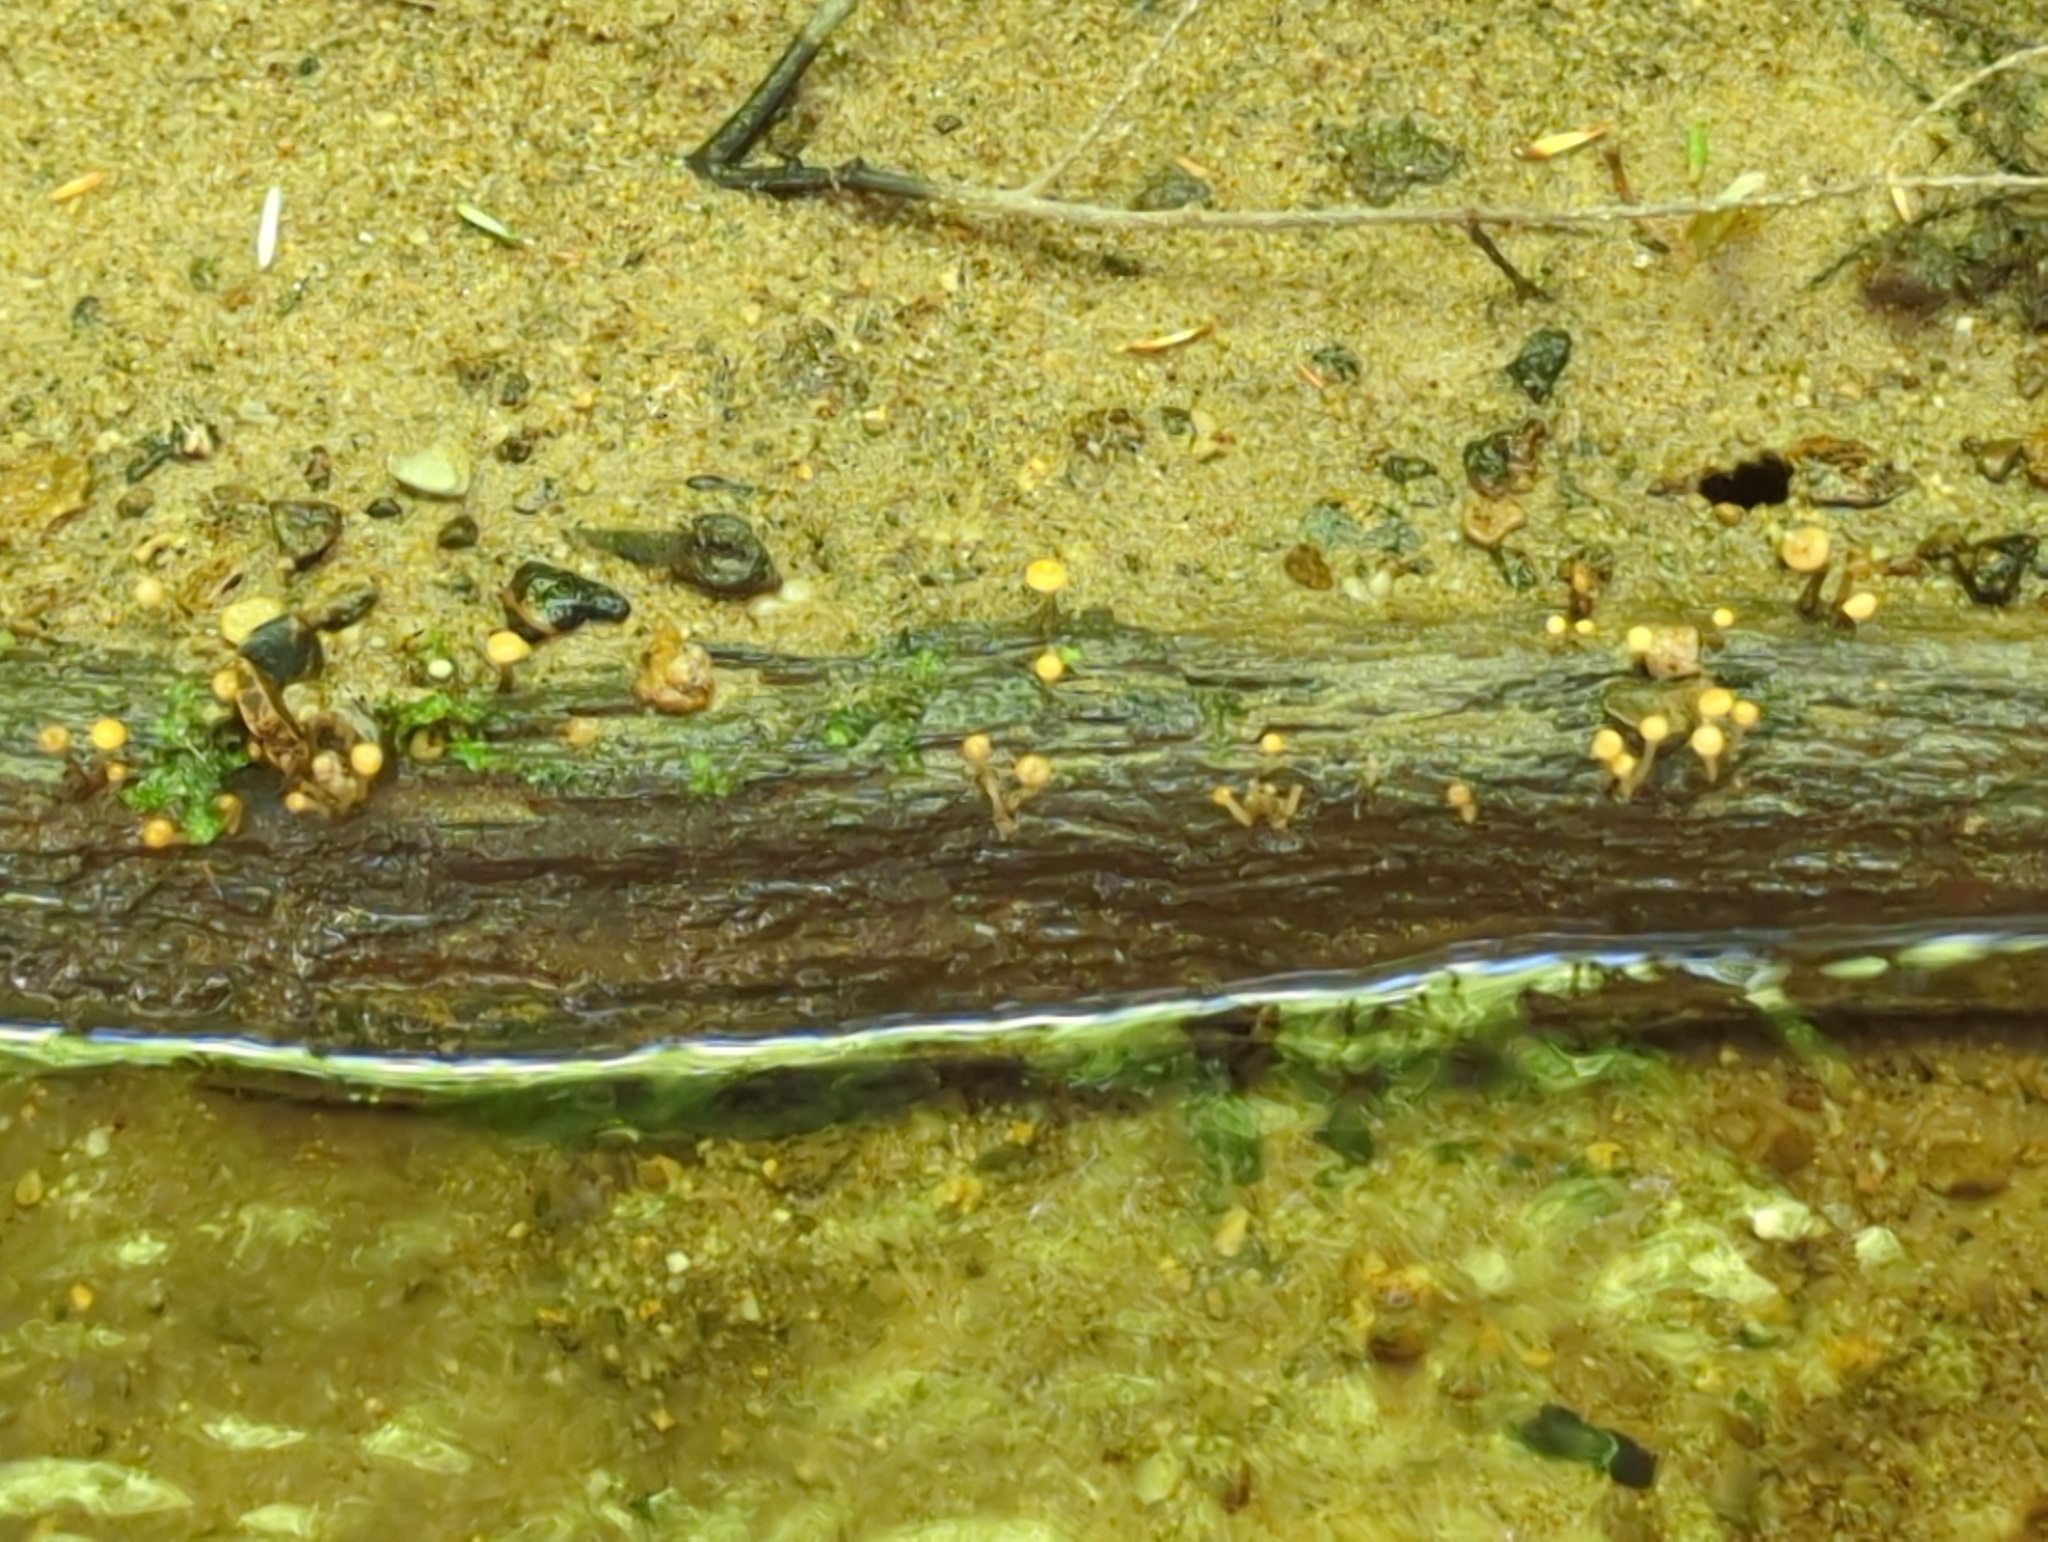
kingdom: Fungi
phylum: Ascomycota
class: Leotiomycetes
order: Helotiales
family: Vibrisseaceae
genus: Vibrissea
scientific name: Vibrissea truncorum
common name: Stream beacon
